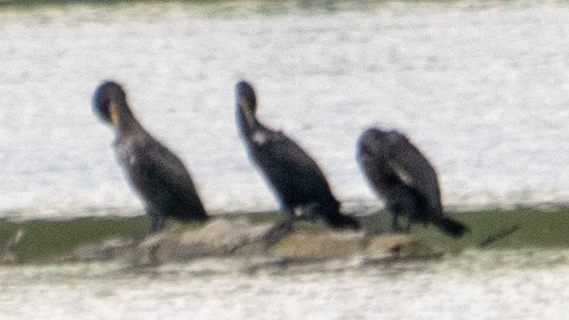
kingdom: Animalia
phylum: Chordata
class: Aves
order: Suliformes
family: Phalacrocoracidae
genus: Phalacrocorax
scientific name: Phalacrocorax carbo
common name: Great cormorant
